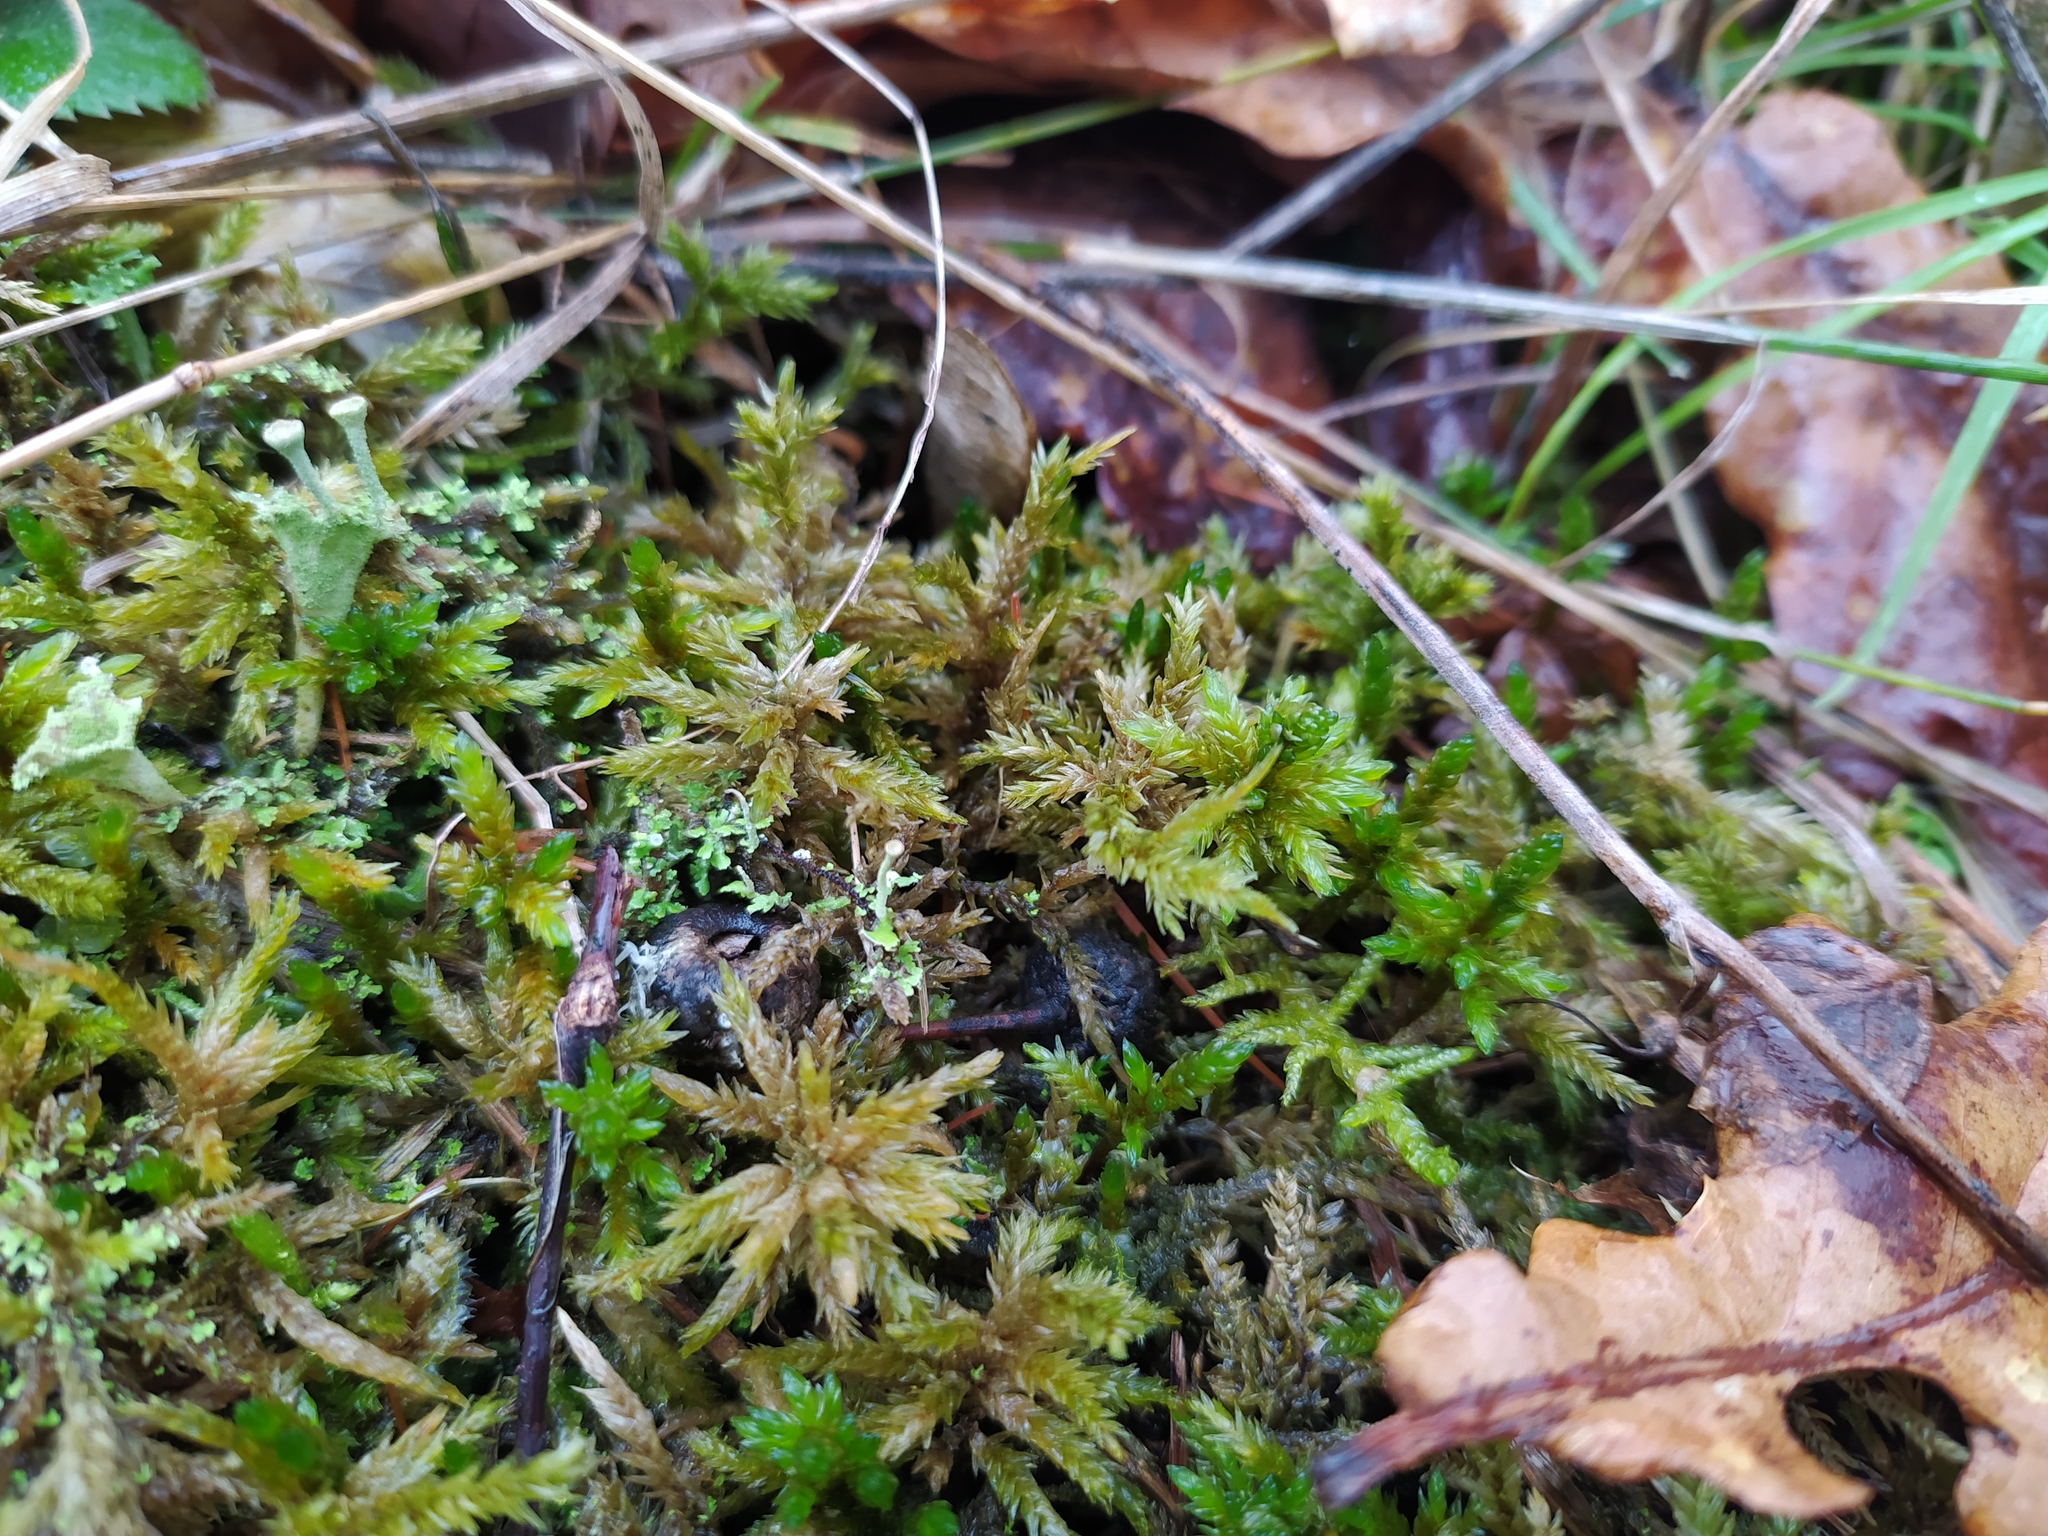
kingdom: Plantae
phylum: Bryophyta
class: Bryopsida
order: Hypnales
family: Climaciaceae
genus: Climacium
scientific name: Climacium dendroides
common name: Northern tree moss
